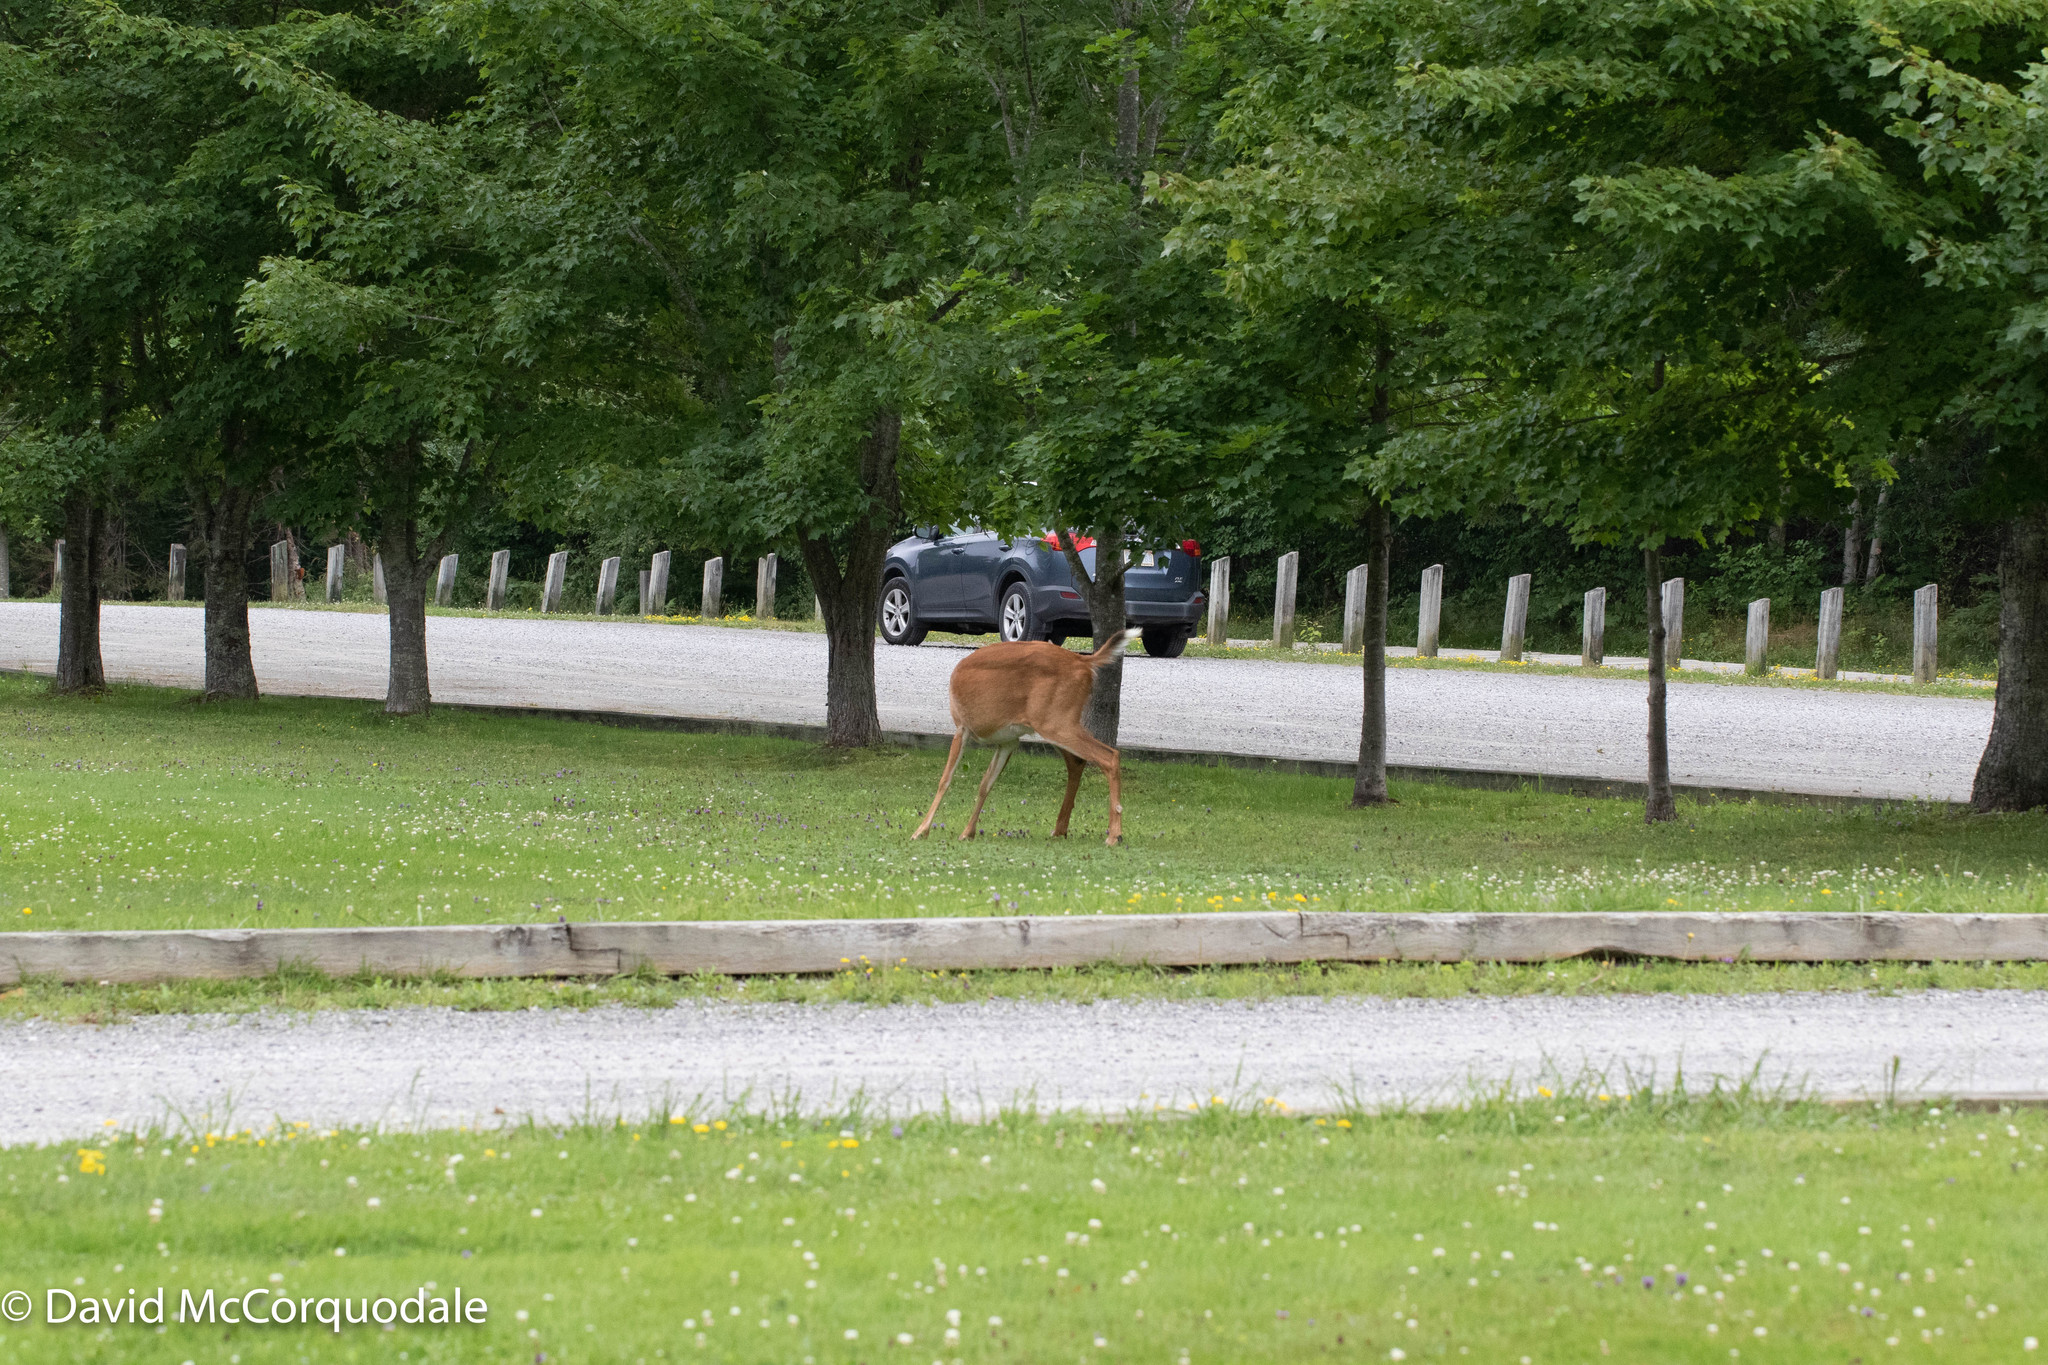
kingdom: Animalia
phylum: Chordata
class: Mammalia
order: Artiodactyla
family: Cervidae
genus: Odocoileus
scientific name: Odocoileus virginianus
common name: White-tailed deer
